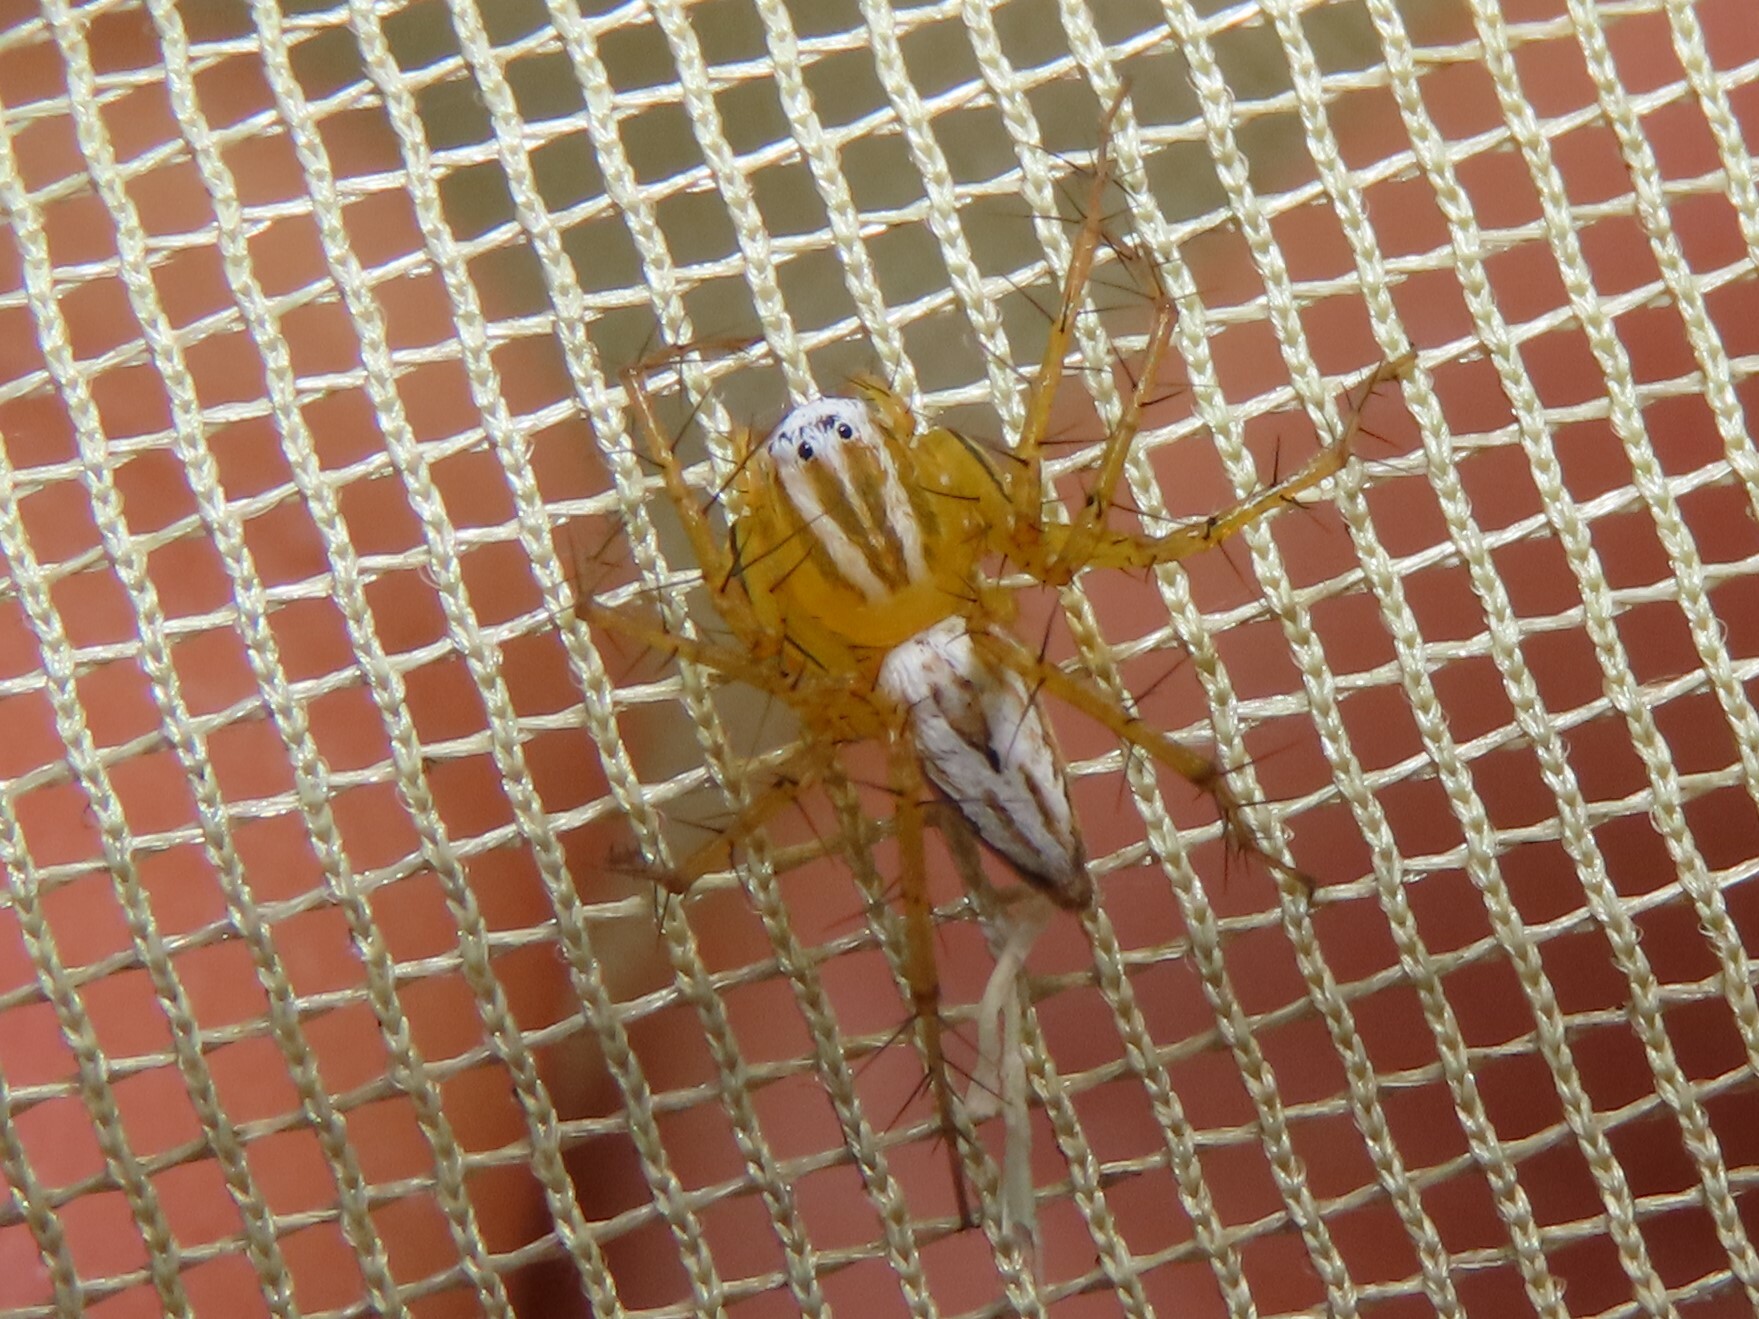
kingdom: Animalia
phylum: Arthropoda
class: Arachnida
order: Araneae
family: Oxyopidae
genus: Oxyopes
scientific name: Oxyopes salticus
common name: Lynx spiders
